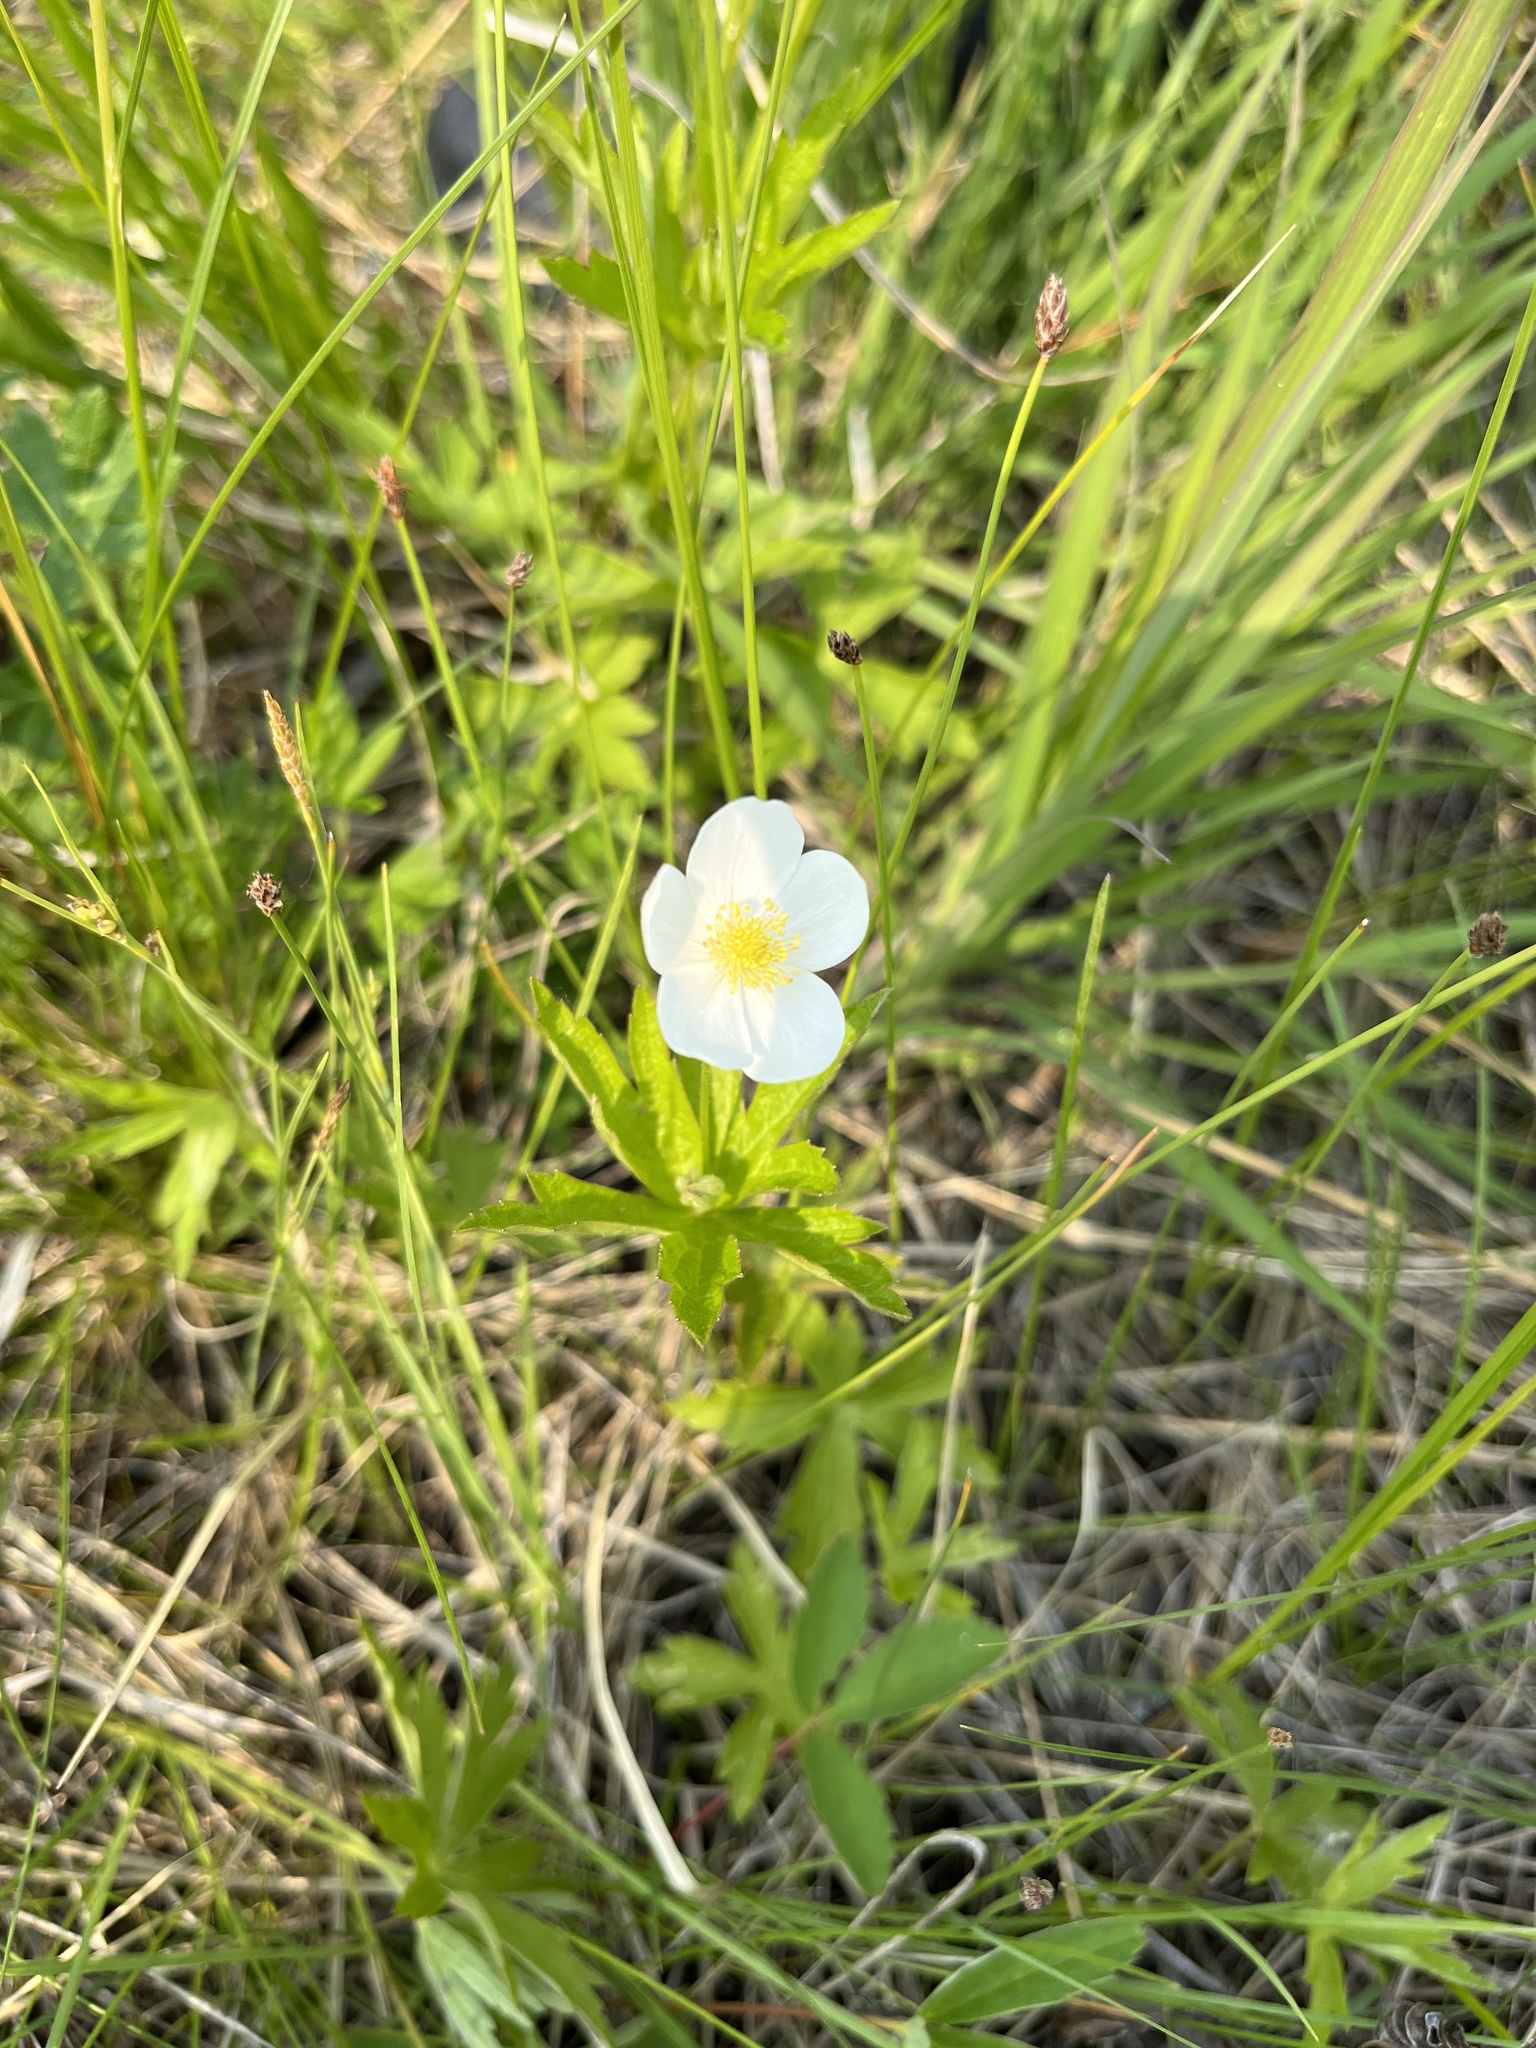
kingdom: Plantae
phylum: Tracheophyta
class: Magnoliopsida
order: Ranunculales
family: Ranunculaceae
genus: Anemonastrum
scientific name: Anemonastrum canadense
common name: Canada anemone
